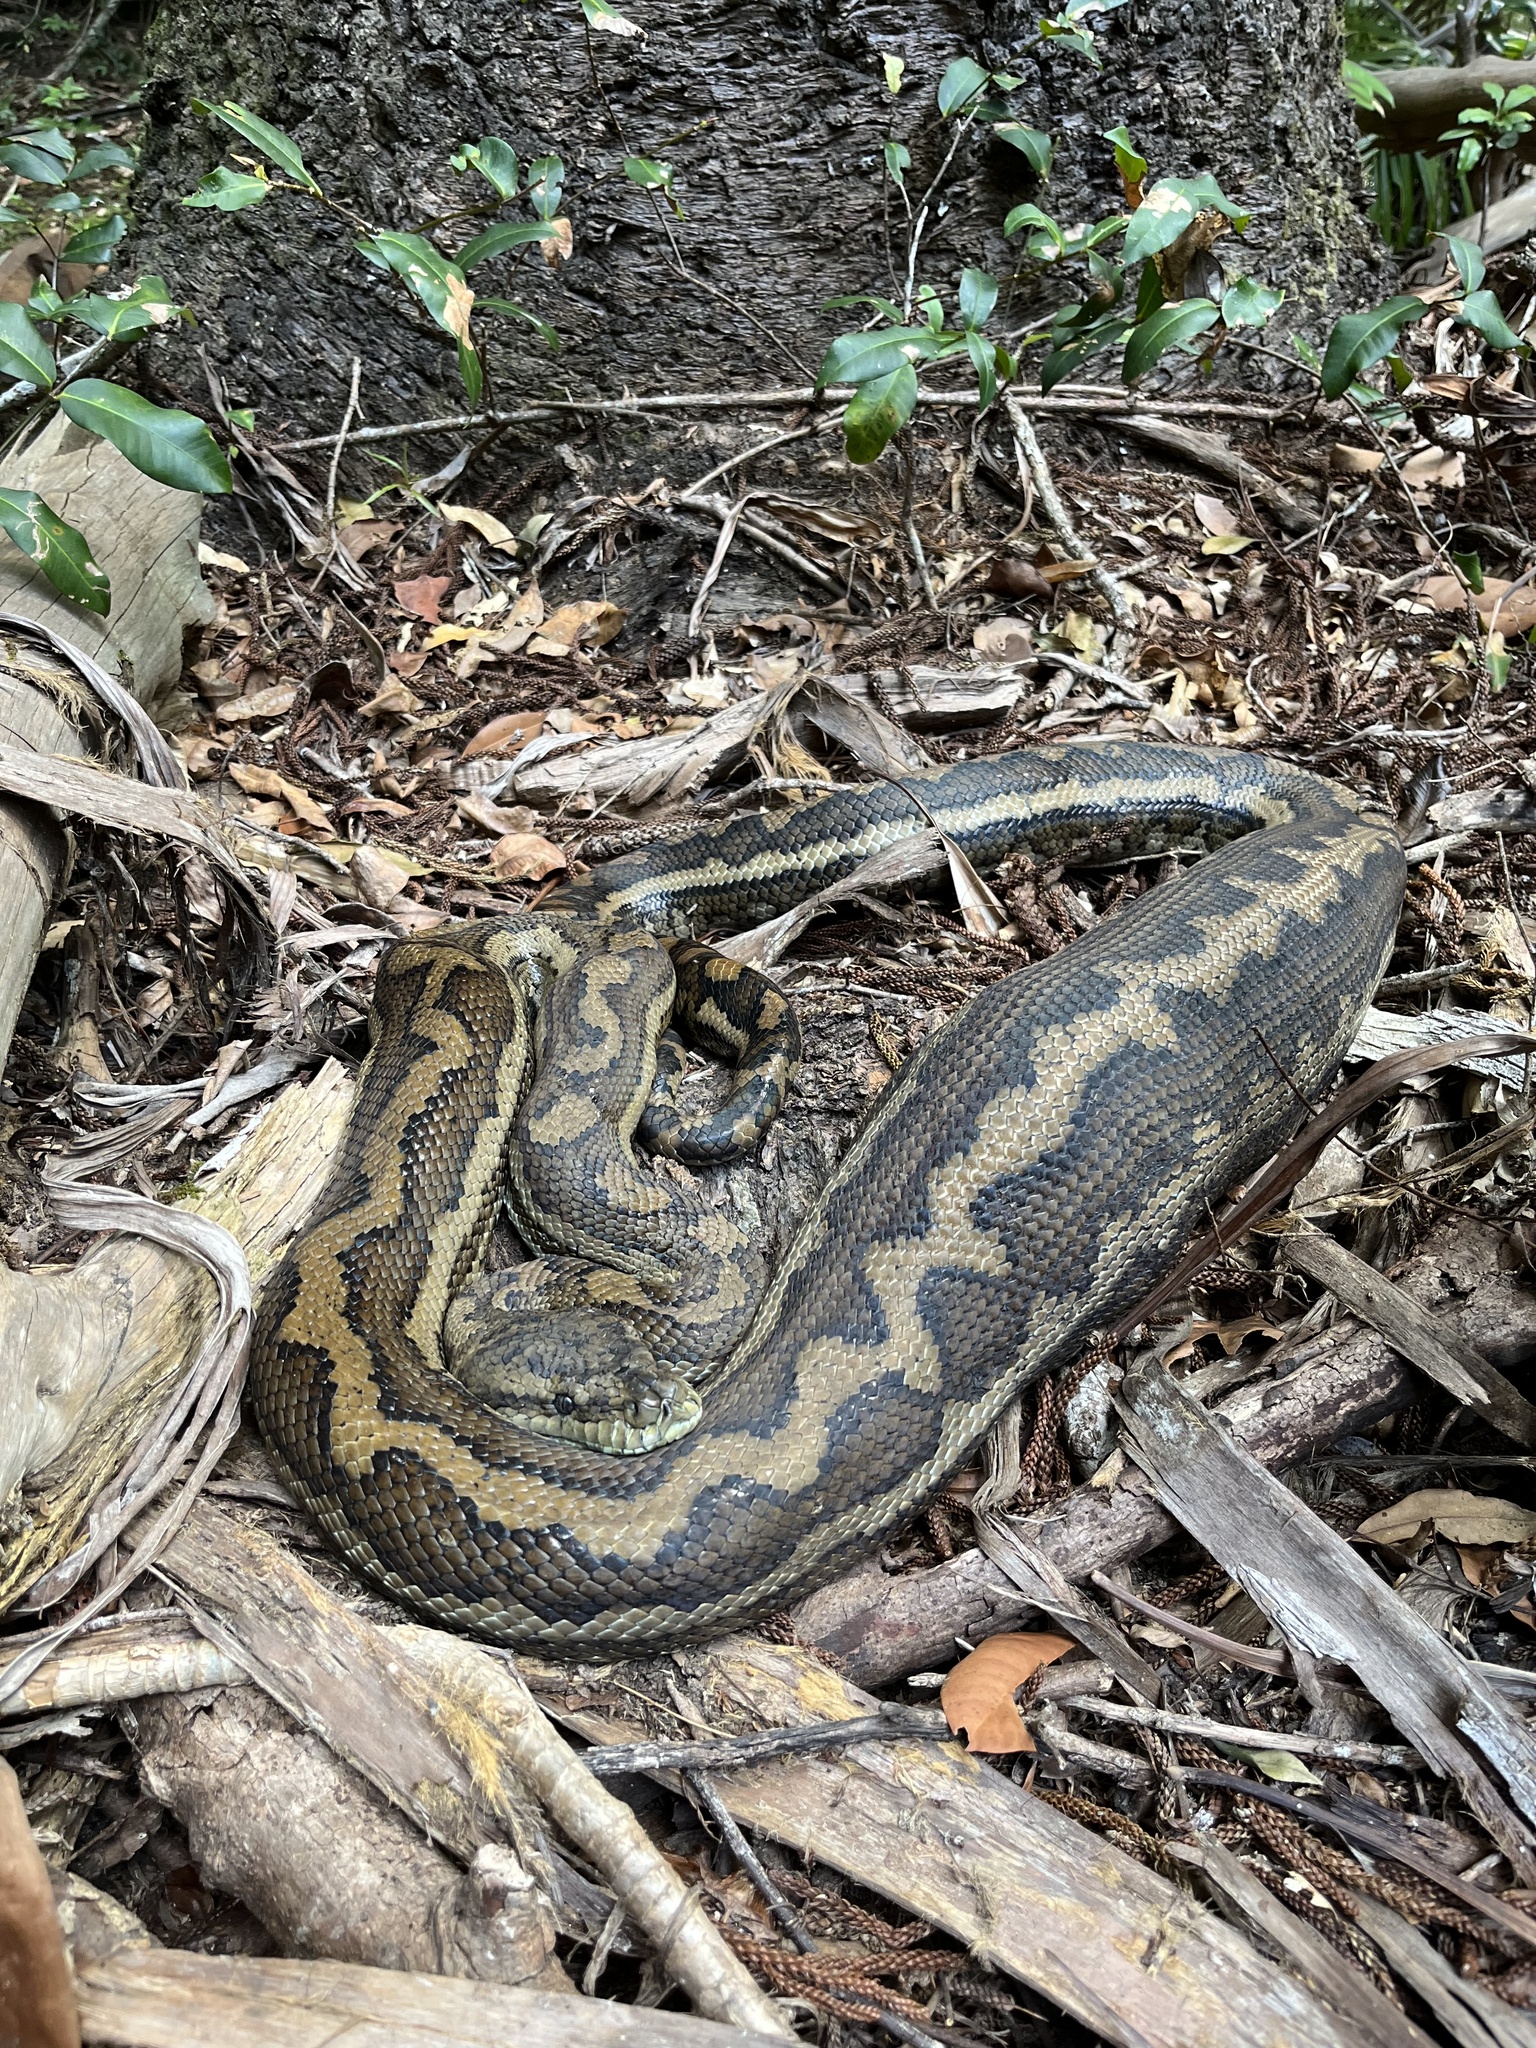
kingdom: Animalia
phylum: Chordata
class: Squamata
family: Pythonidae
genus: Morelia
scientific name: Morelia spilota
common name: Carpet python
